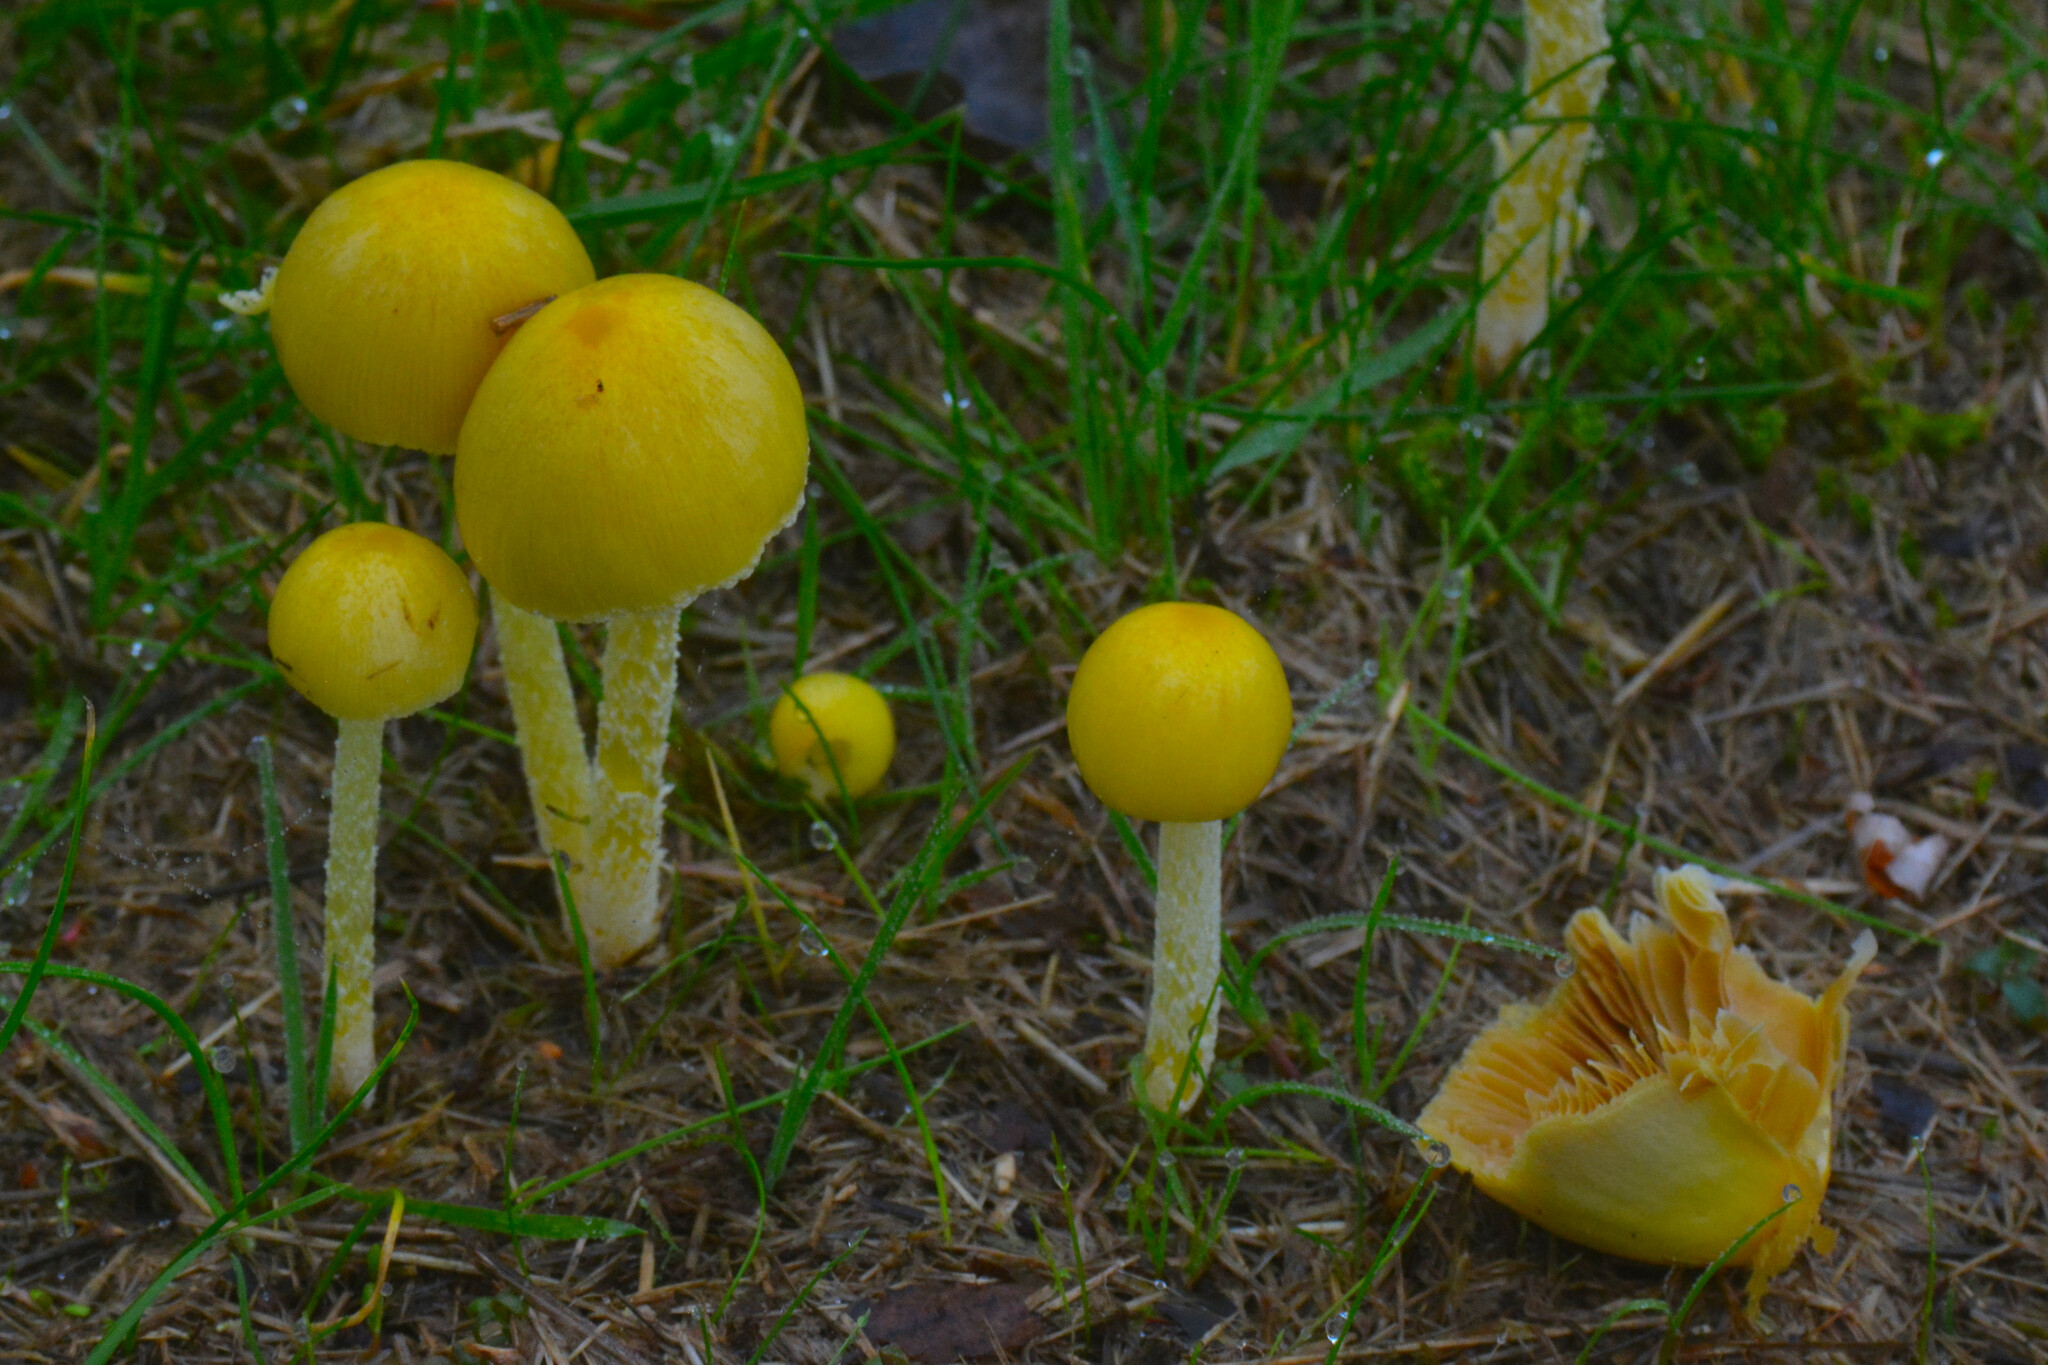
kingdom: Fungi
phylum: Basidiomycota
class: Agaricomycetes
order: Agaricales
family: Bolbitiaceae
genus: Bolbitius
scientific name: Bolbitius titubans
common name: Yellow fieldcap
